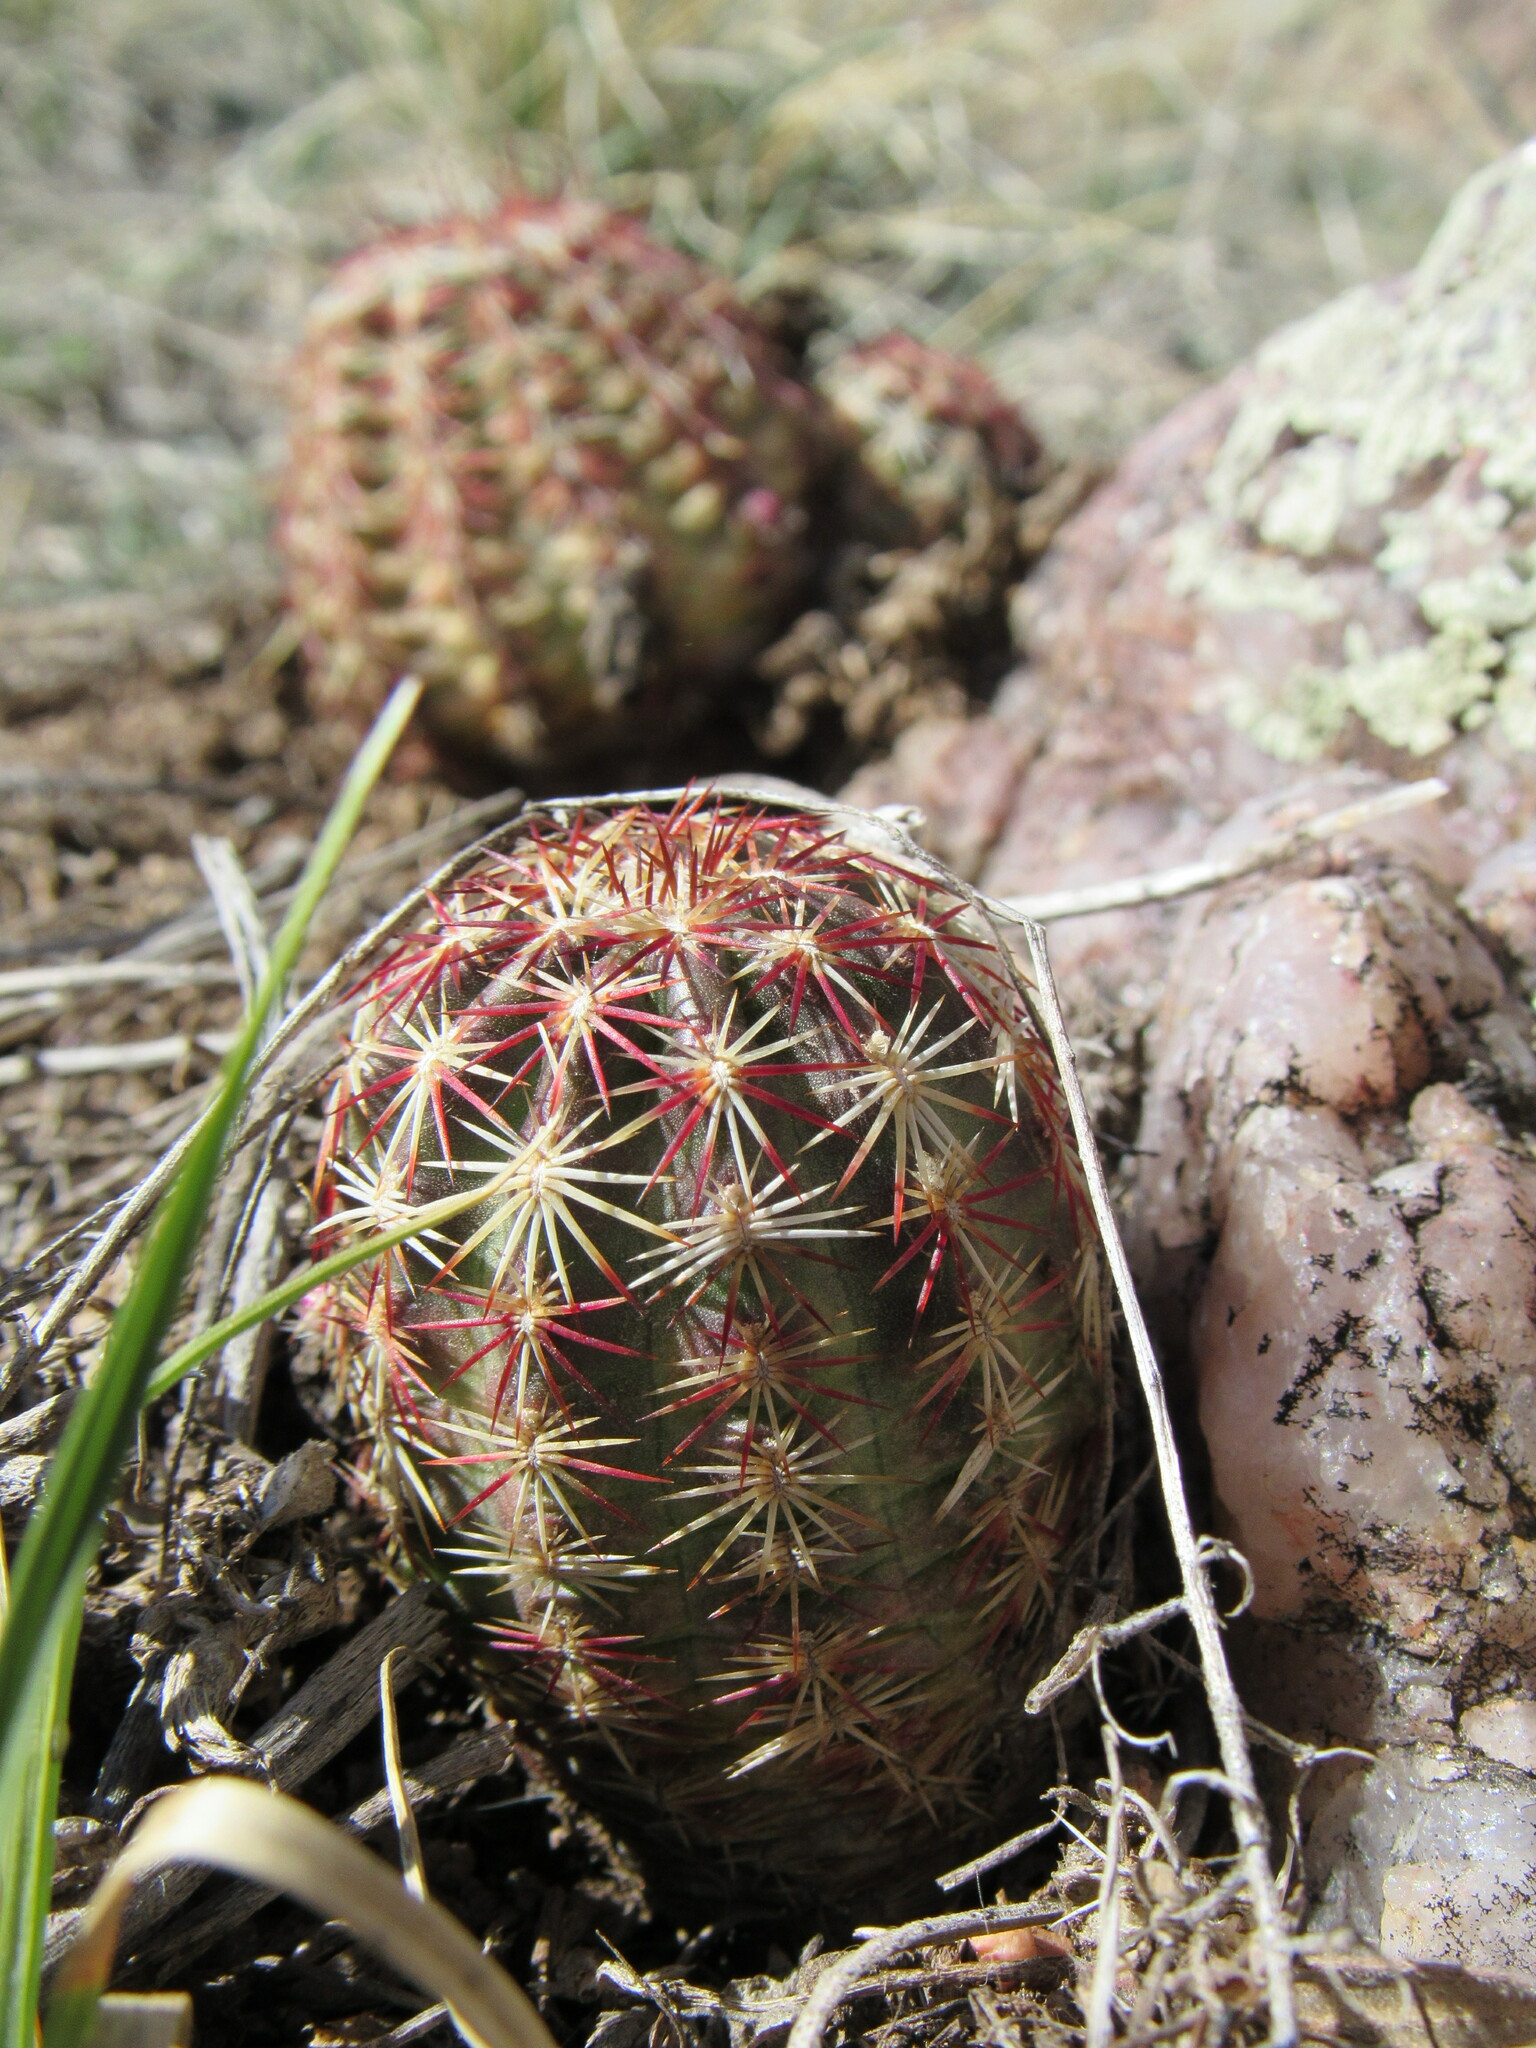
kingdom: Plantae
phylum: Tracheophyta
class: Magnoliopsida
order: Caryophyllales
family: Cactaceae
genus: Echinocereus
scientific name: Echinocereus viridiflorus
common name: Nylon hedgehog cactus
